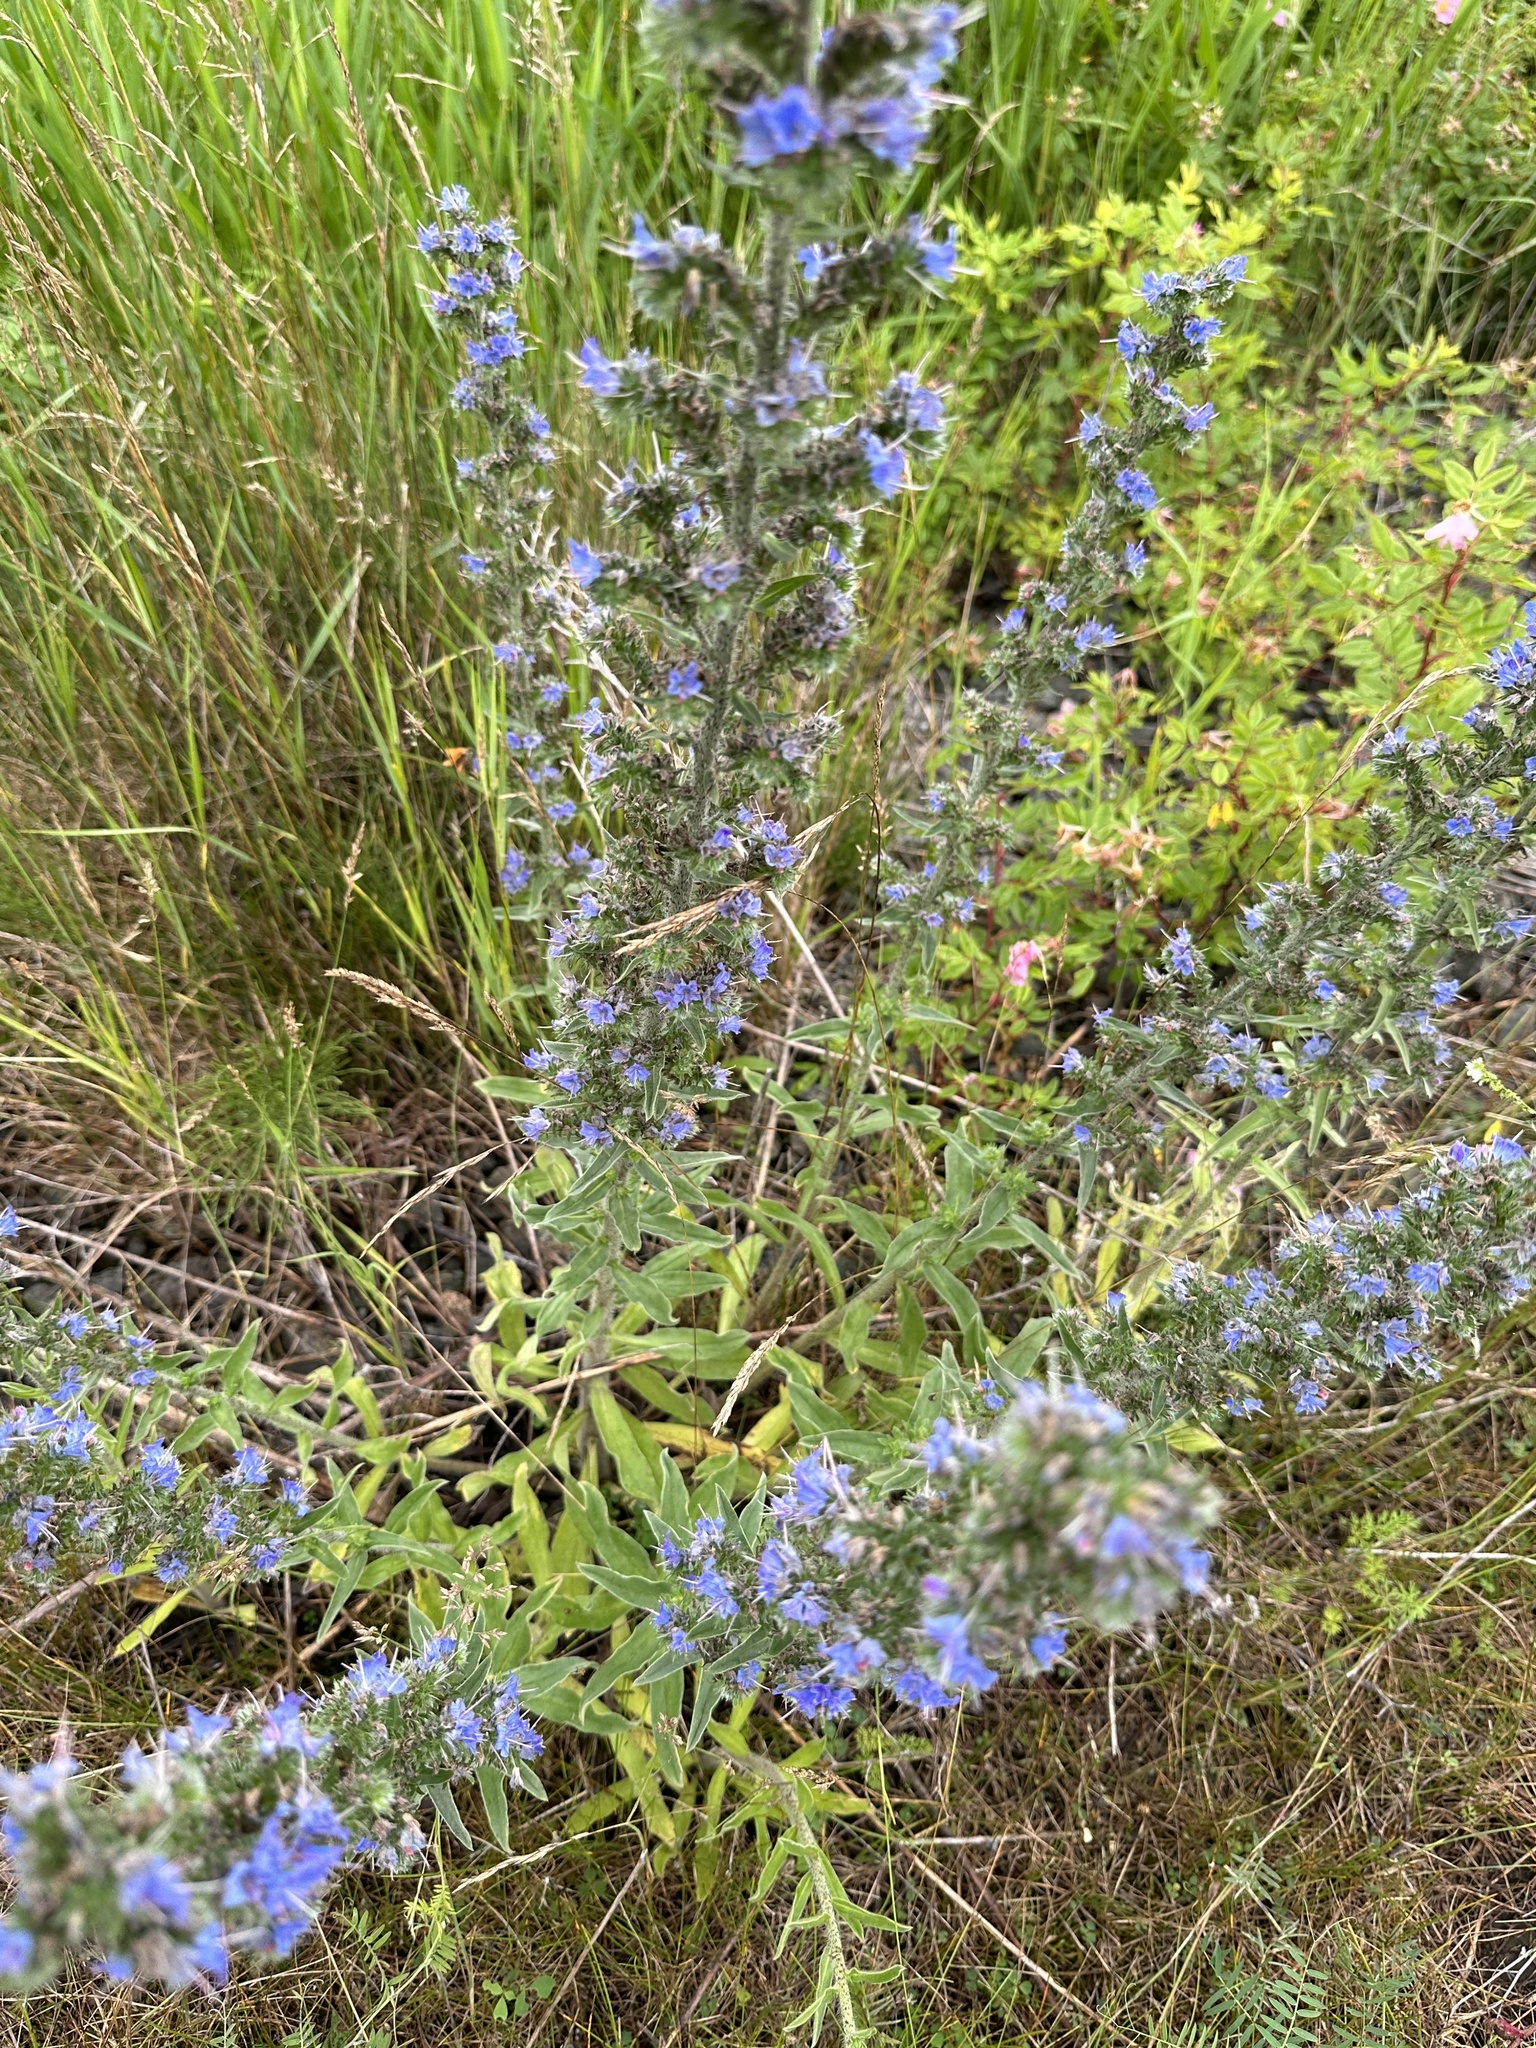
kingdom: Plantae
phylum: Tracheophyta
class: Magnoliopsida
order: Boraginales
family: Boraginaceae
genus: Echium
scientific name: Echium vulgare
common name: Common viper's bugloss
